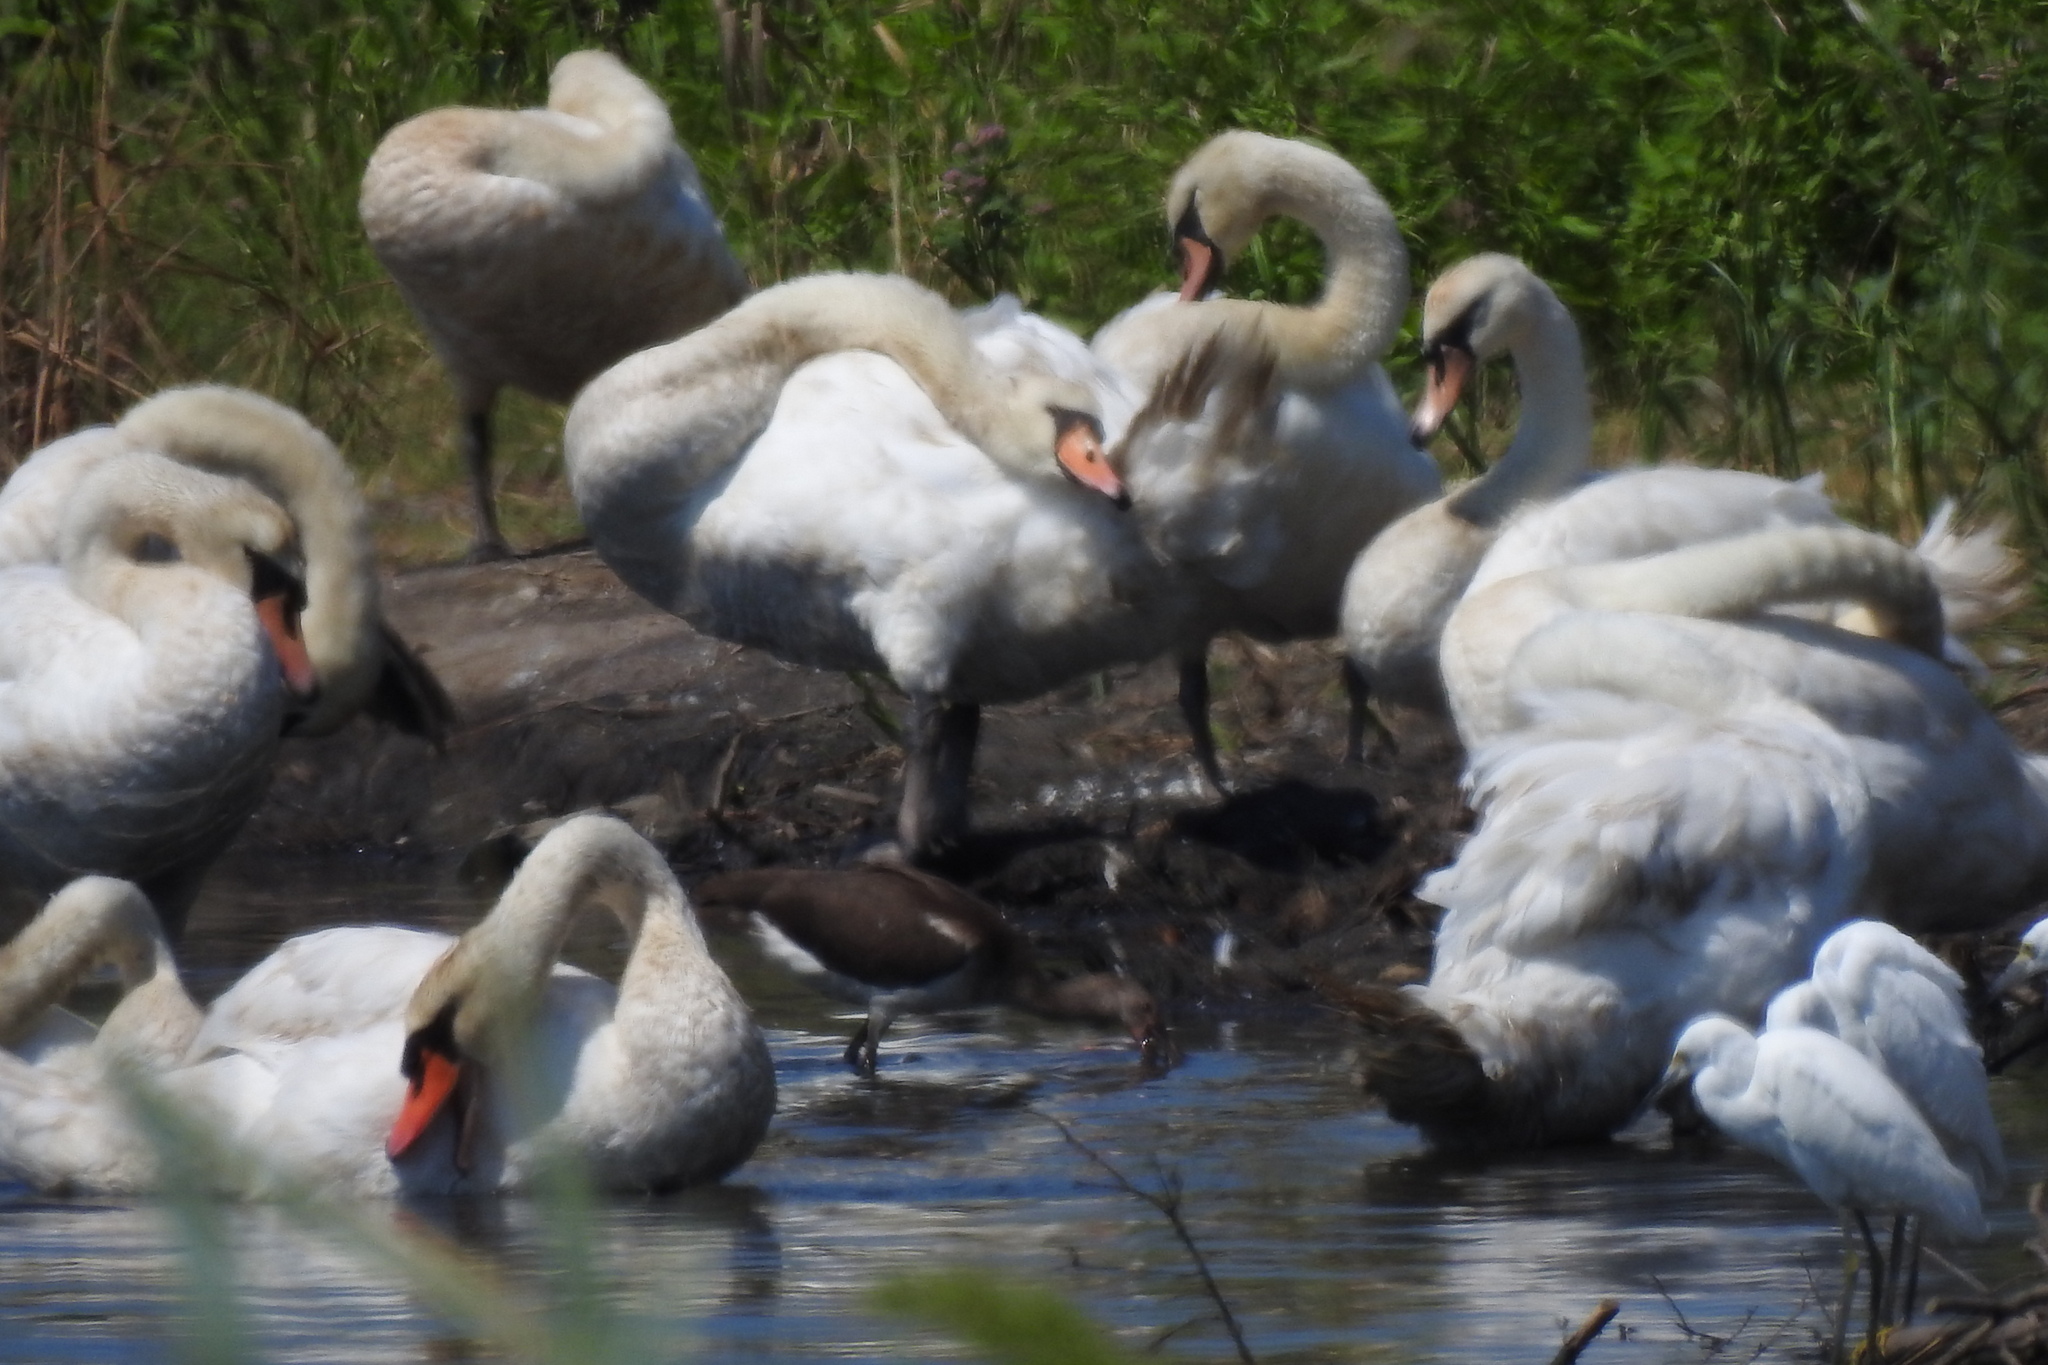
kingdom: Animalia
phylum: Chordata
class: Aves
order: Anseriformes
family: Anatidae
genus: Cygnus
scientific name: Cygnus olor
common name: Mute swan
